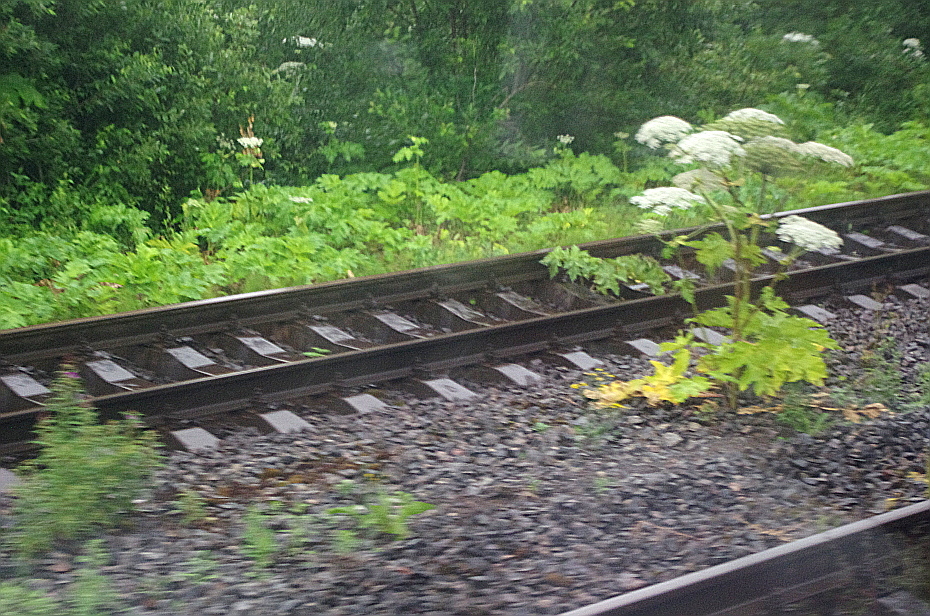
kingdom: Plantae
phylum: Tracheophyta
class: Magnoliopsida
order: Apiales
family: Apiaceae
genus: Heracleum
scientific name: Heracleum sosnowskyi
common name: Sosnowsky's hogweed
